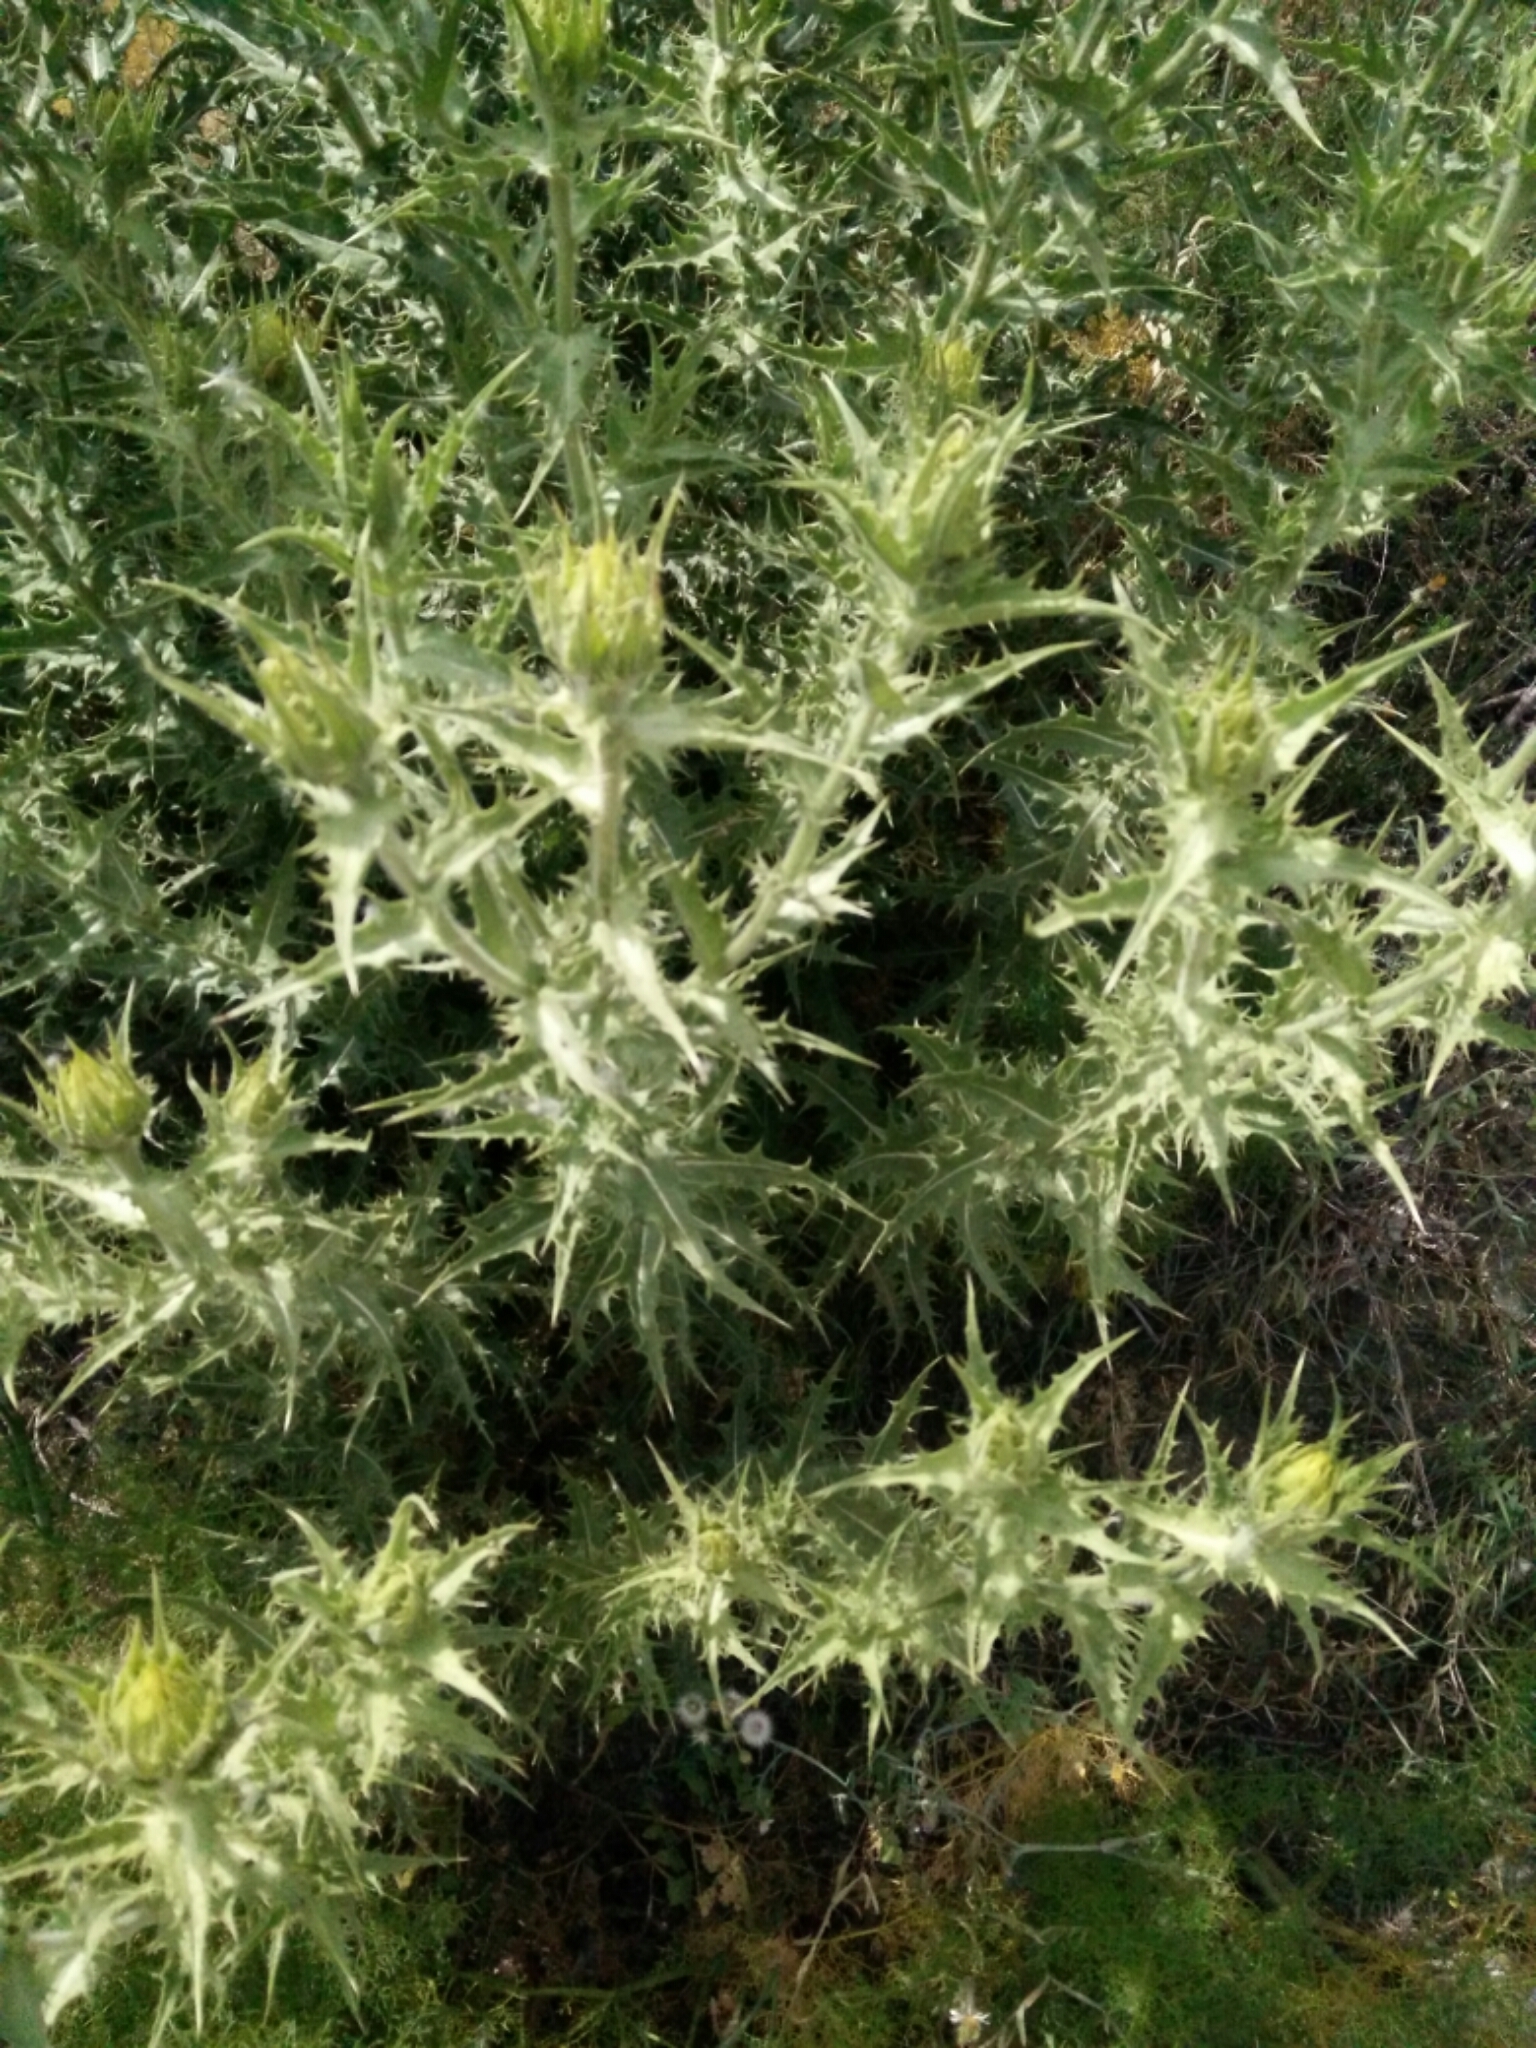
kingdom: Plantae
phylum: Tracheophyta
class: Magnoliopsida
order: Asterales
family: Asteraceae
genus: Phonus
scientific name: Phonus arborescens
